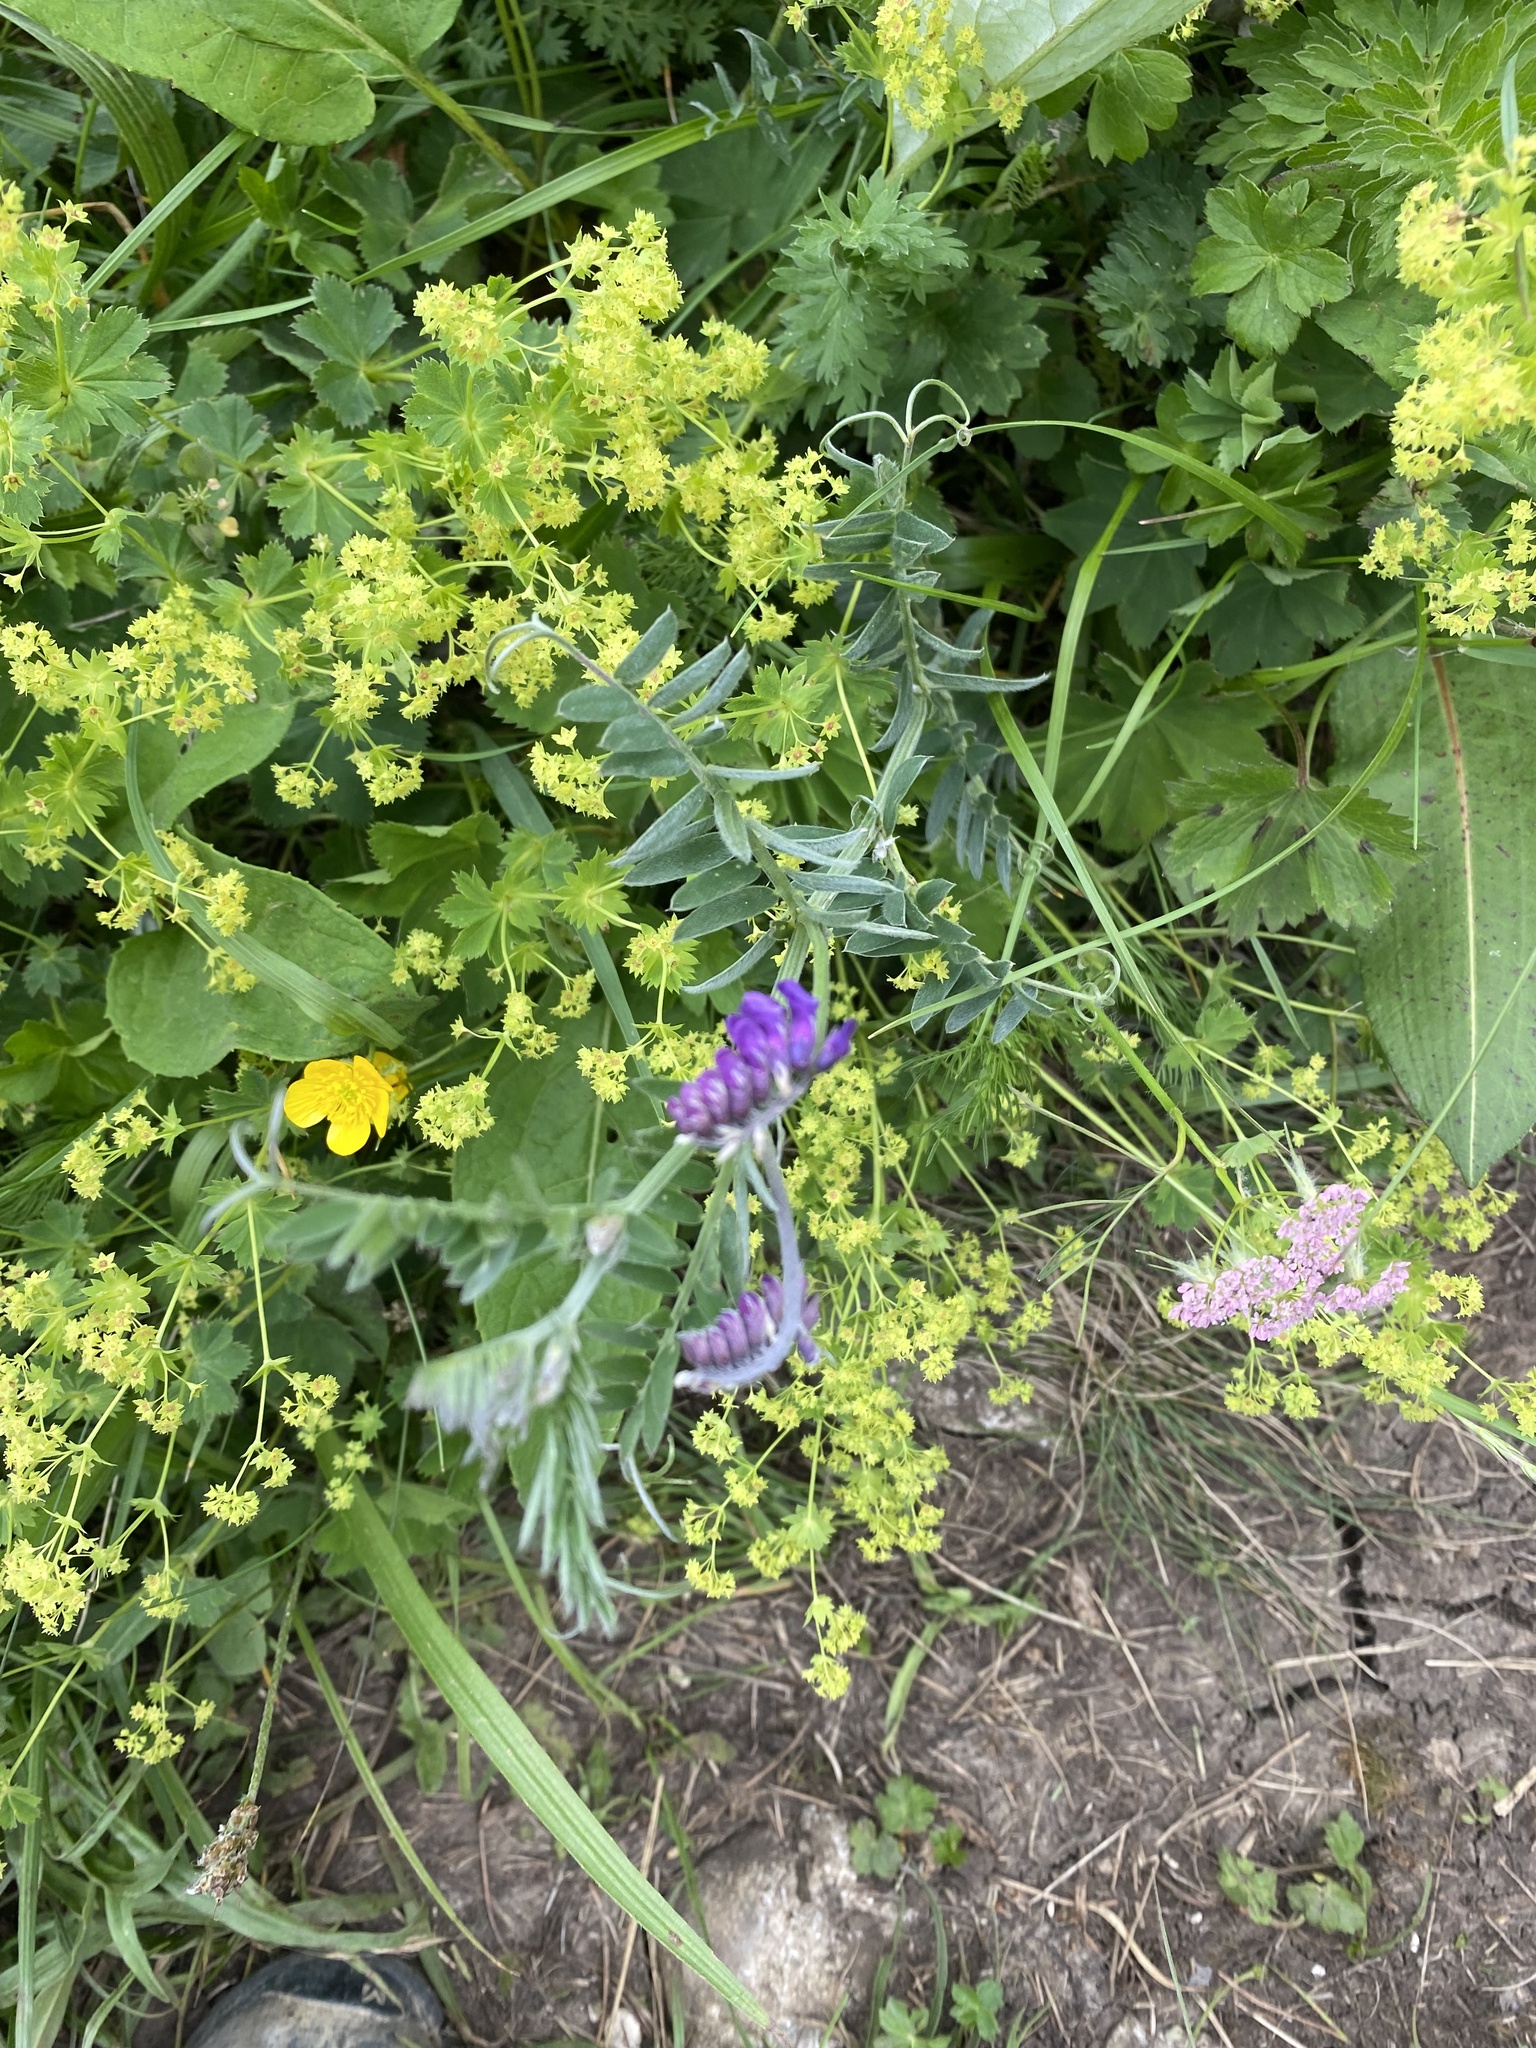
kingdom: Plantae
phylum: Tracheophyta
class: Magnoliopsida
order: Fabales
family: Fabaceae
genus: Vicia
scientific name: Vicia cracca
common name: Bird vetch
